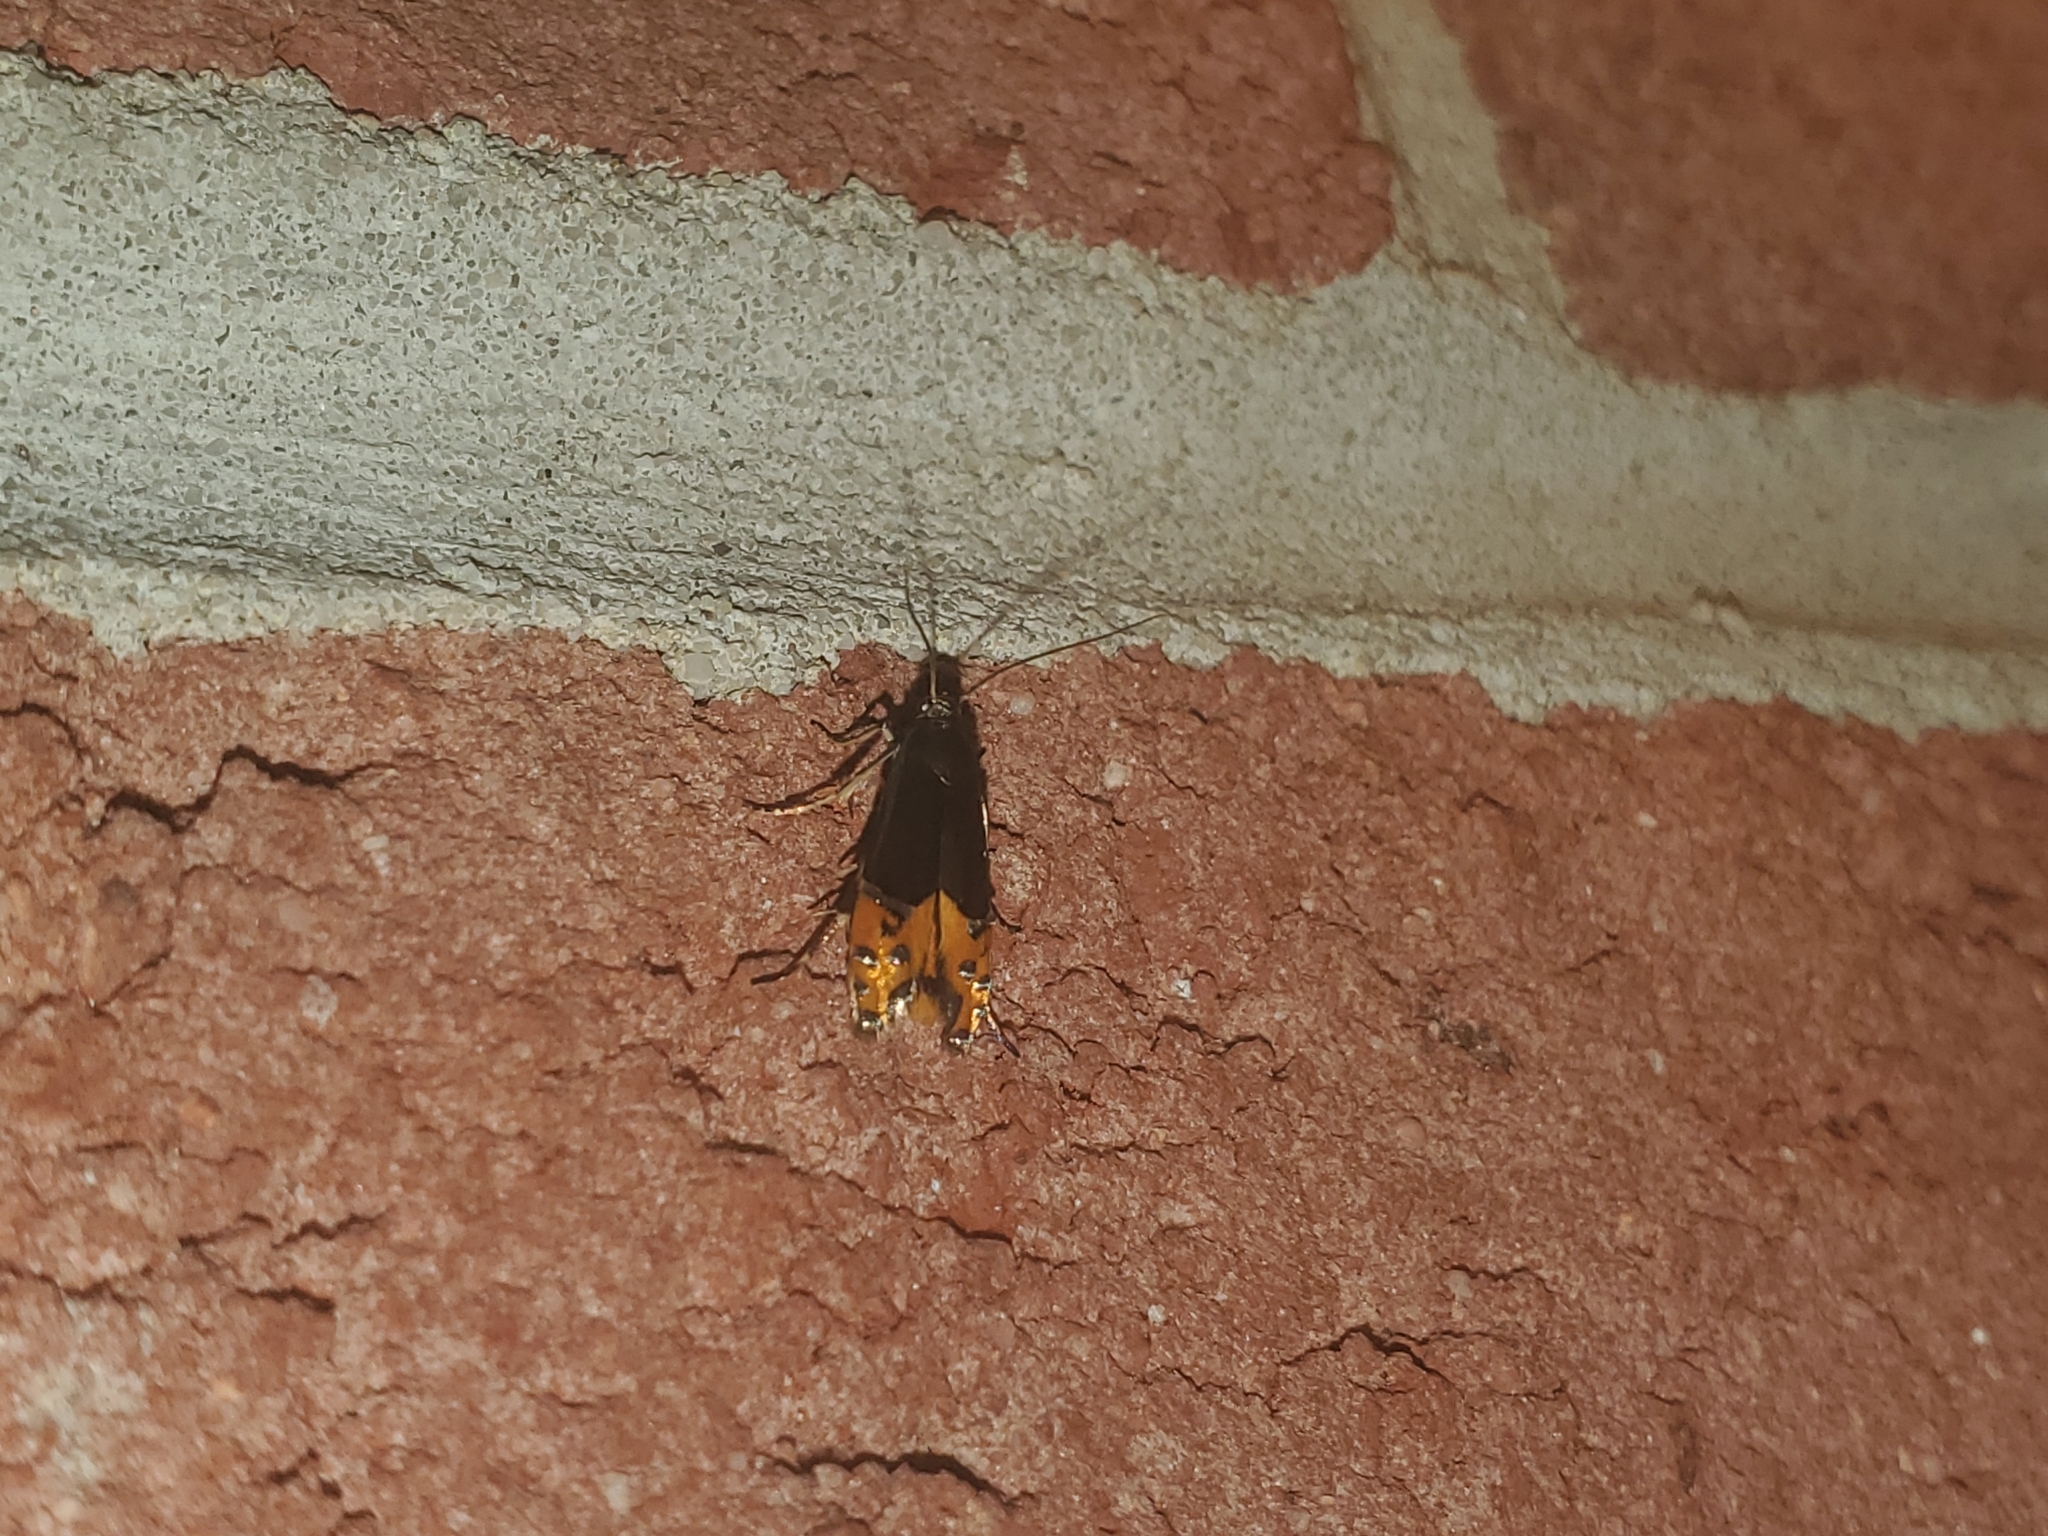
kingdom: Animalia
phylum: Arthropoda
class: Insecta
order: Lepidoptera
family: Glyphipterigidae
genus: Lepidotarphius
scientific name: Lepidotarphius perornatella
